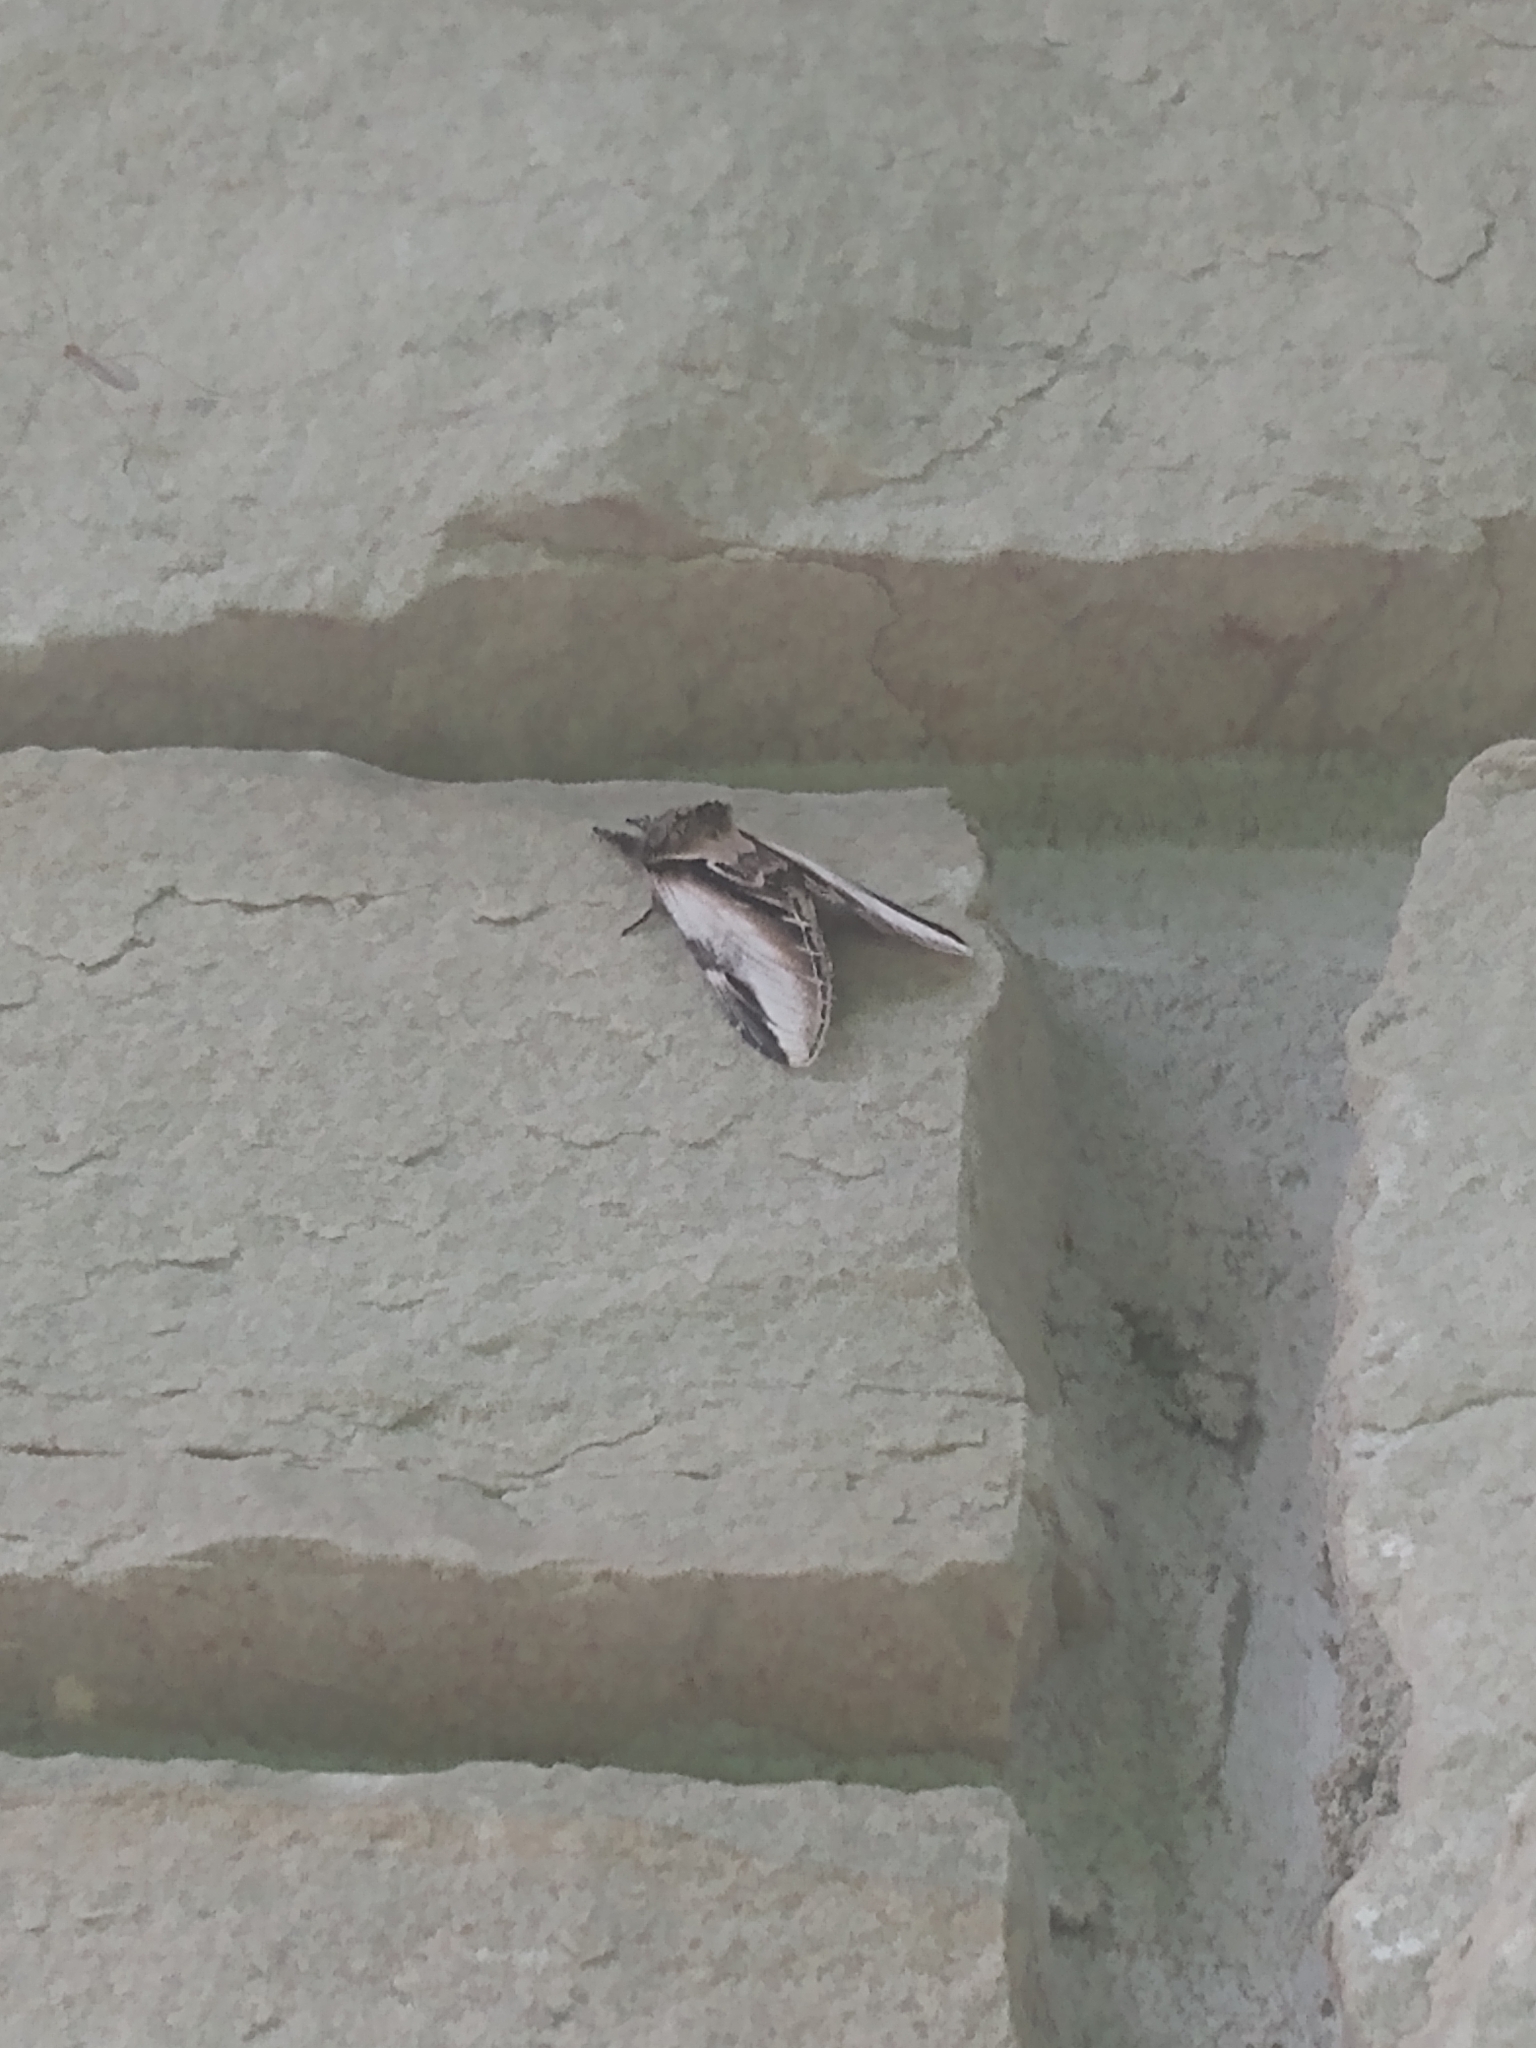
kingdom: Animalia
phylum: Arthropoda
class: Insecta
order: Lepidoptera
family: Notodontidae
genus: Pheosia
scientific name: Pheosia rimosa
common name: Black-rimmed prominent
